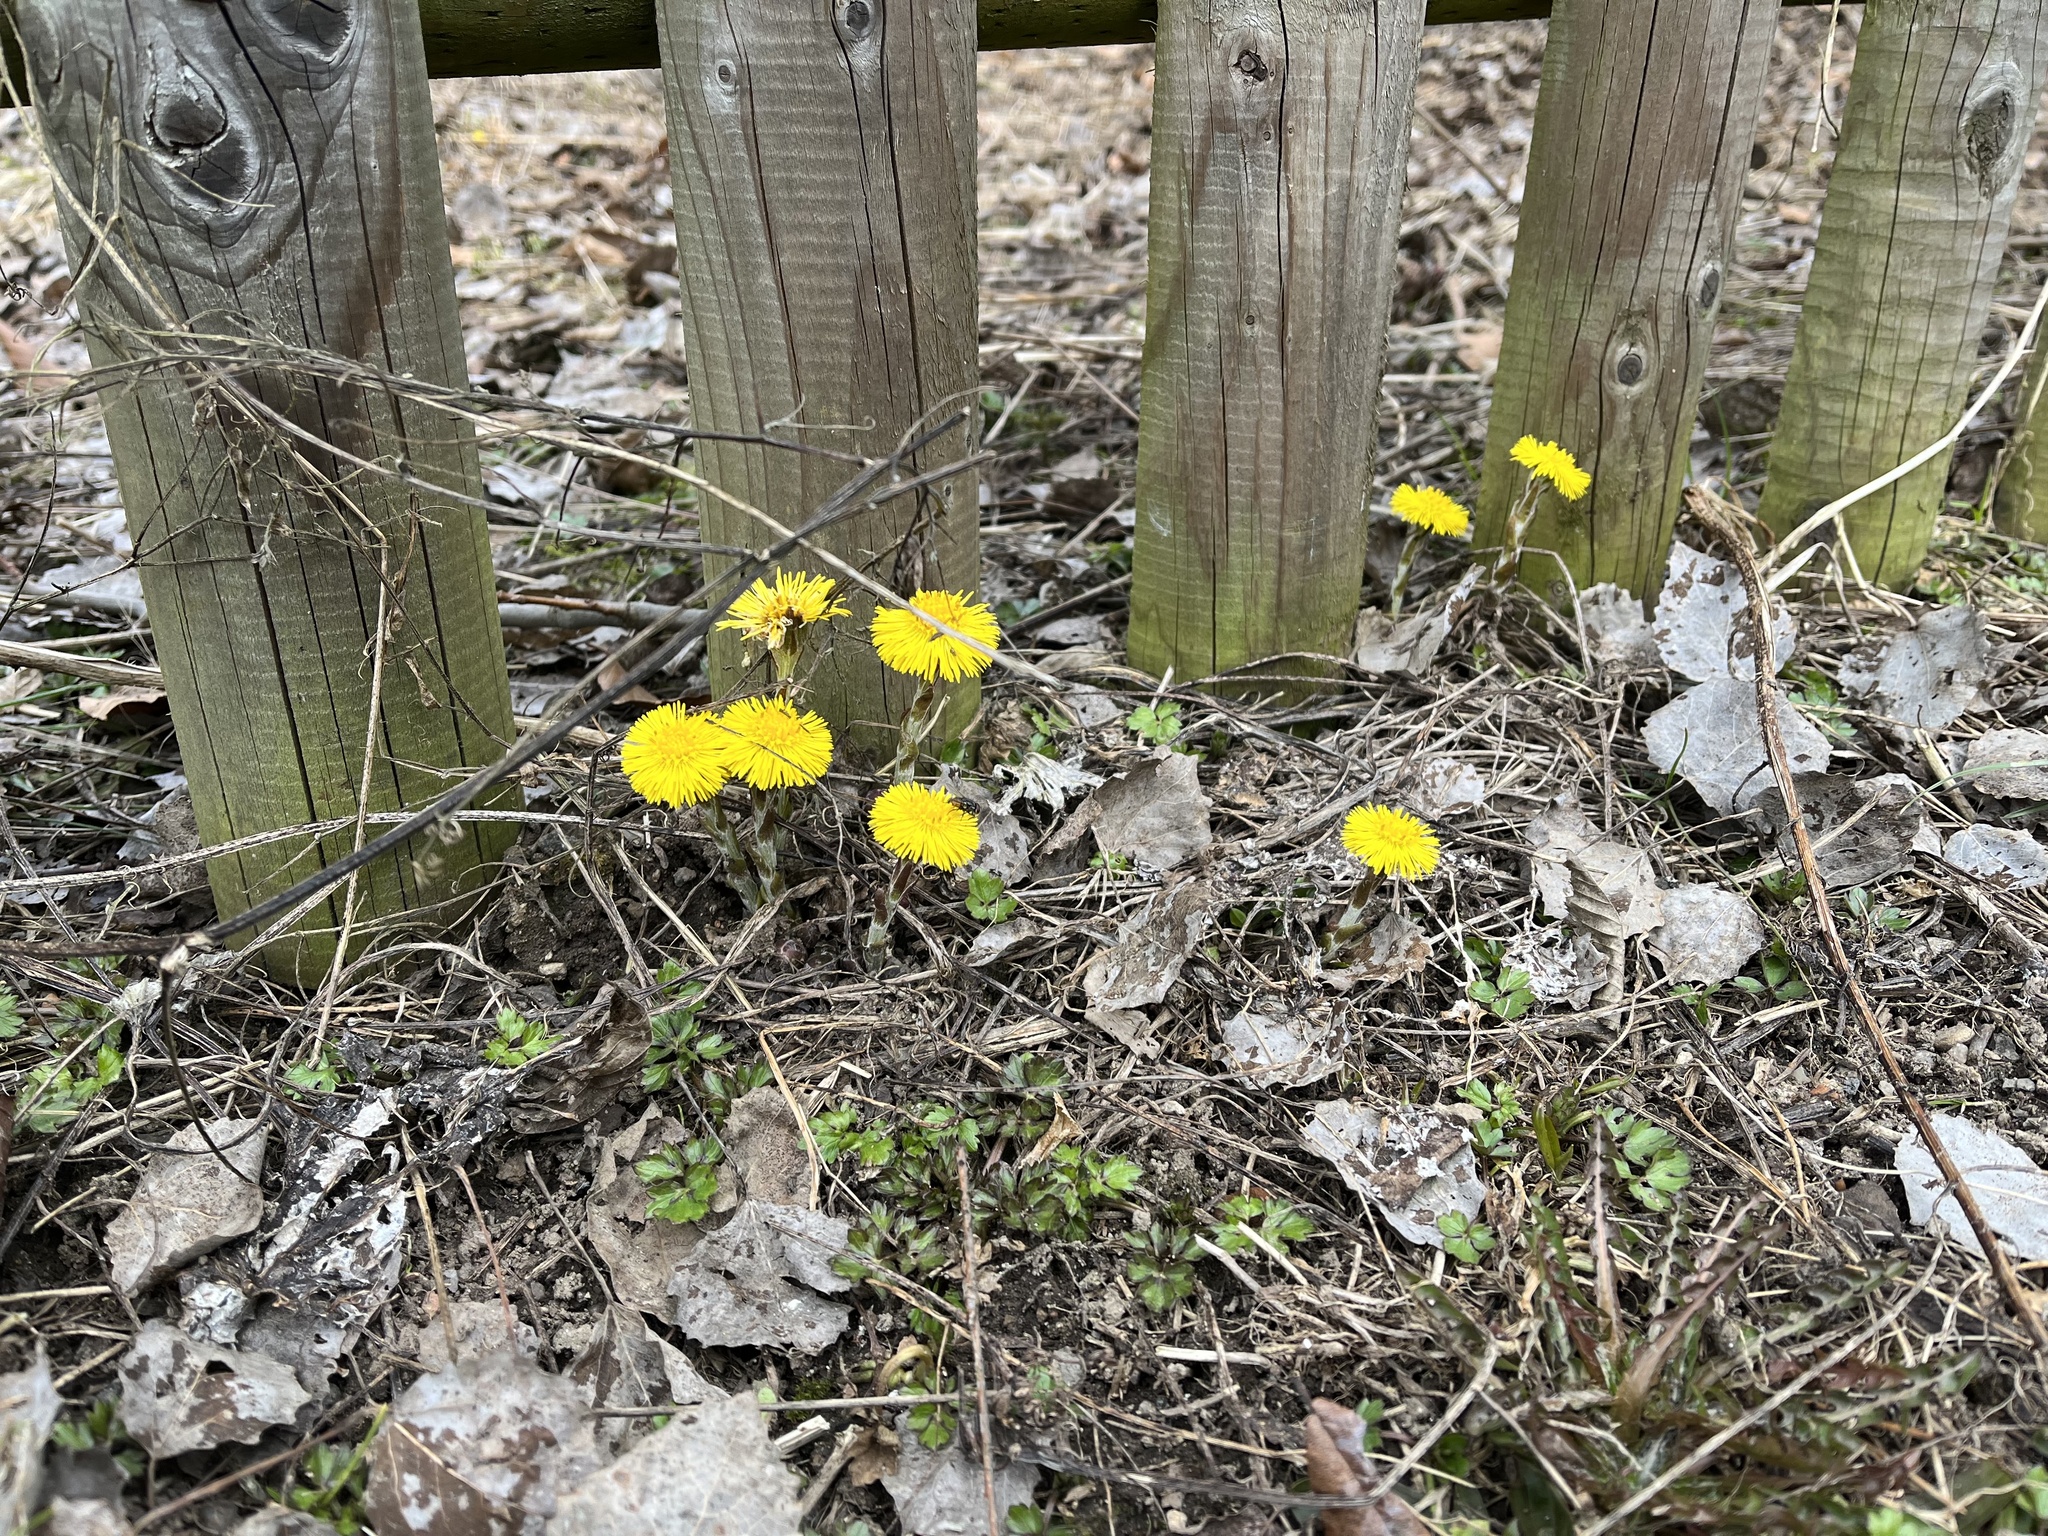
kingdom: Plantae
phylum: Tracheophyta
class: Magnoliopsida
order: Asterales
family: Asteraceae
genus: Tussilago
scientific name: Tussilago farfara
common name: Coltsfoot
